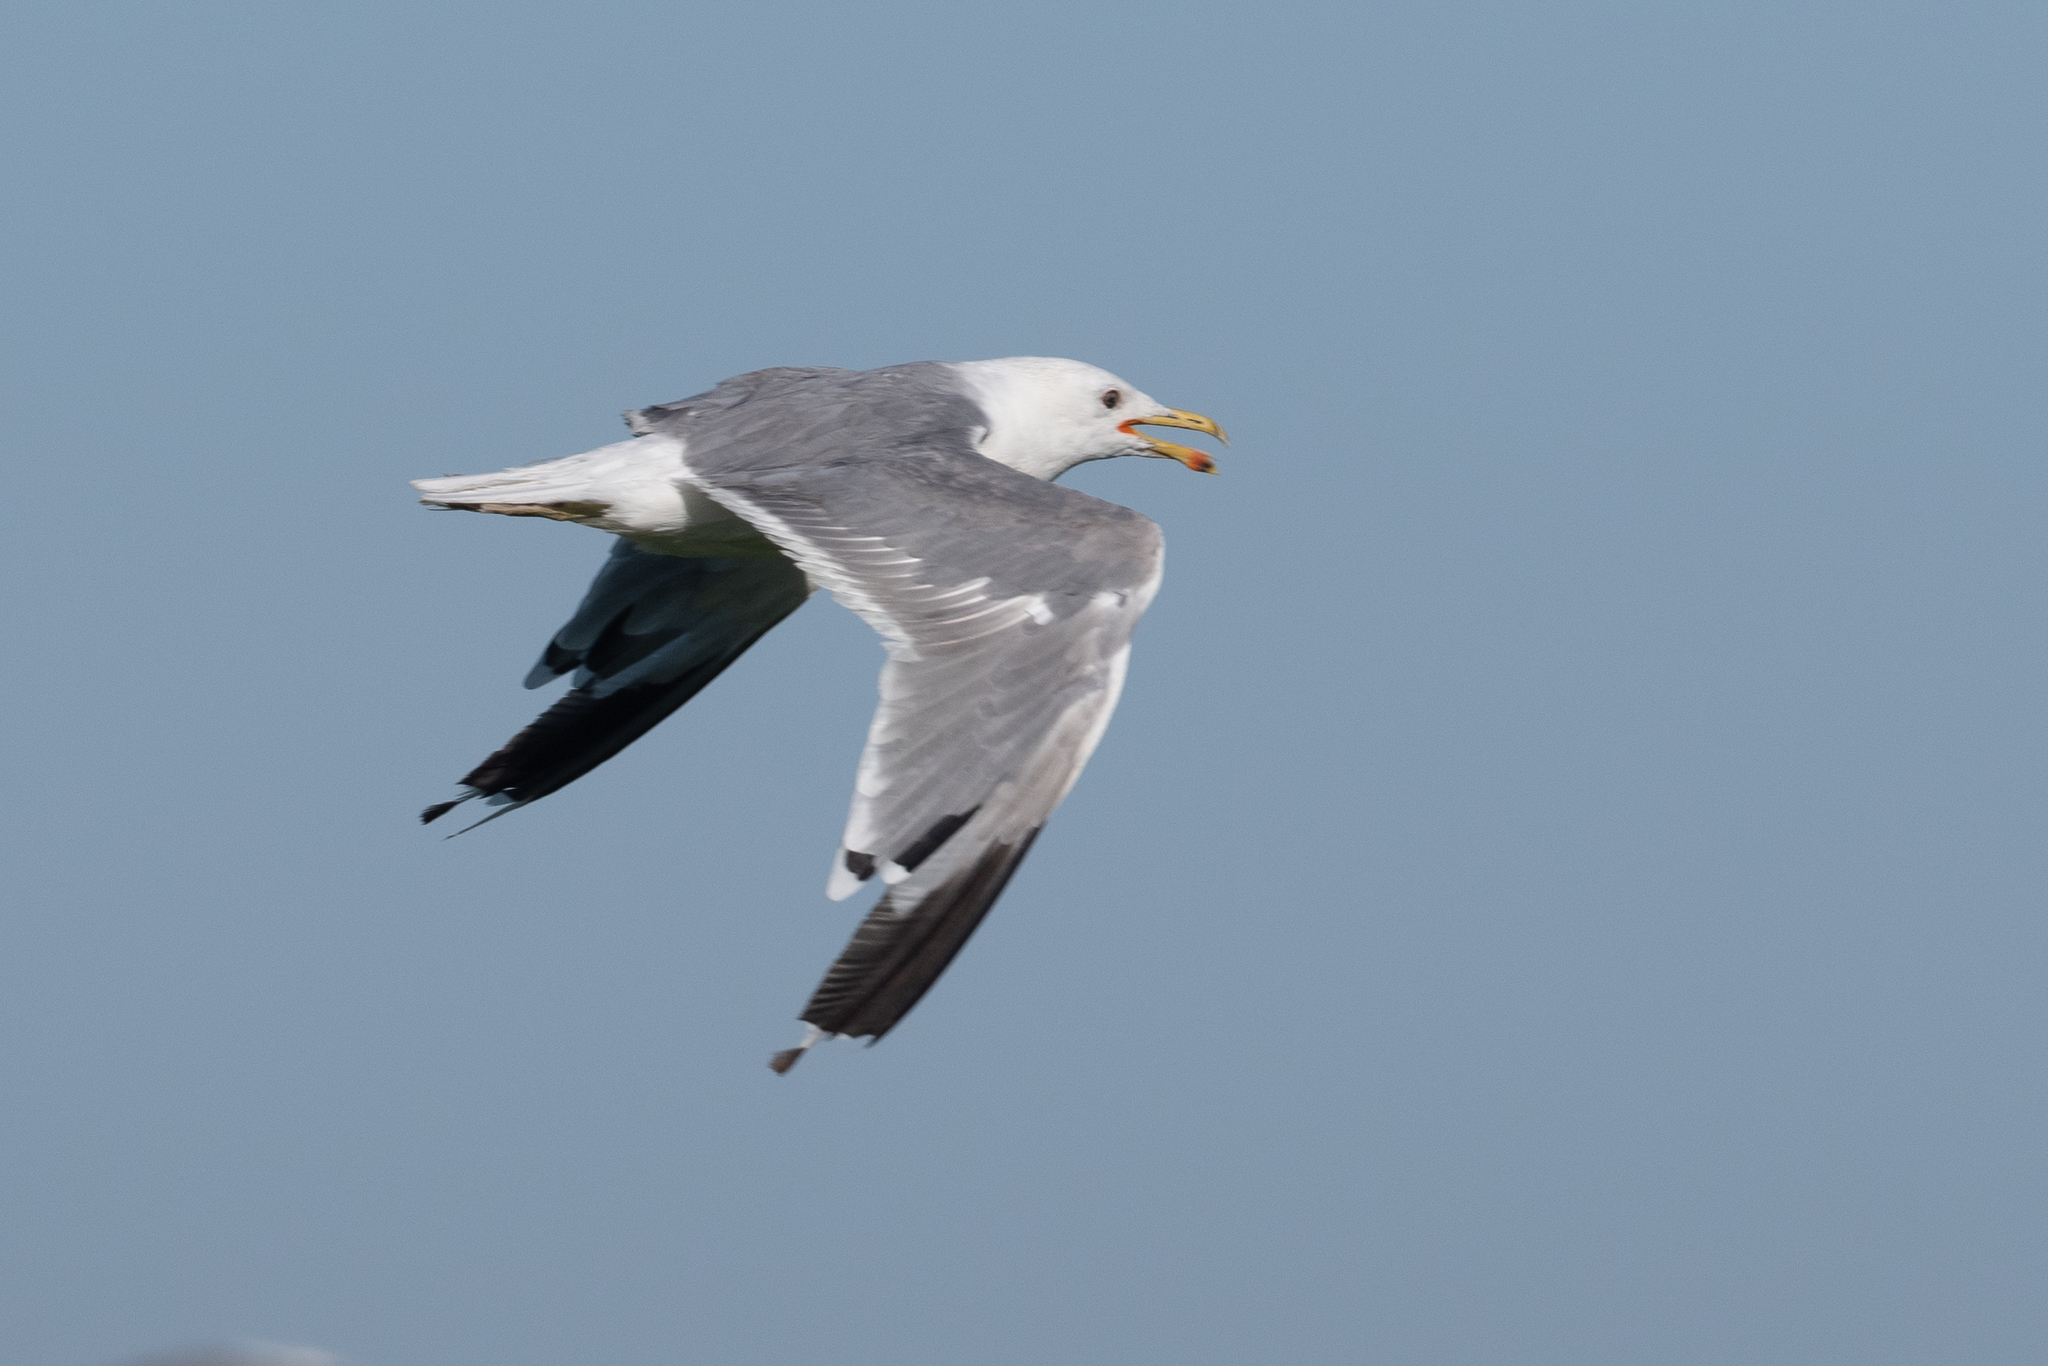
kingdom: Animalia
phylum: Chordata
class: Aves
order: Charadriiformes
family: Laridae
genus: Larus
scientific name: Larus californicus
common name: California gull
